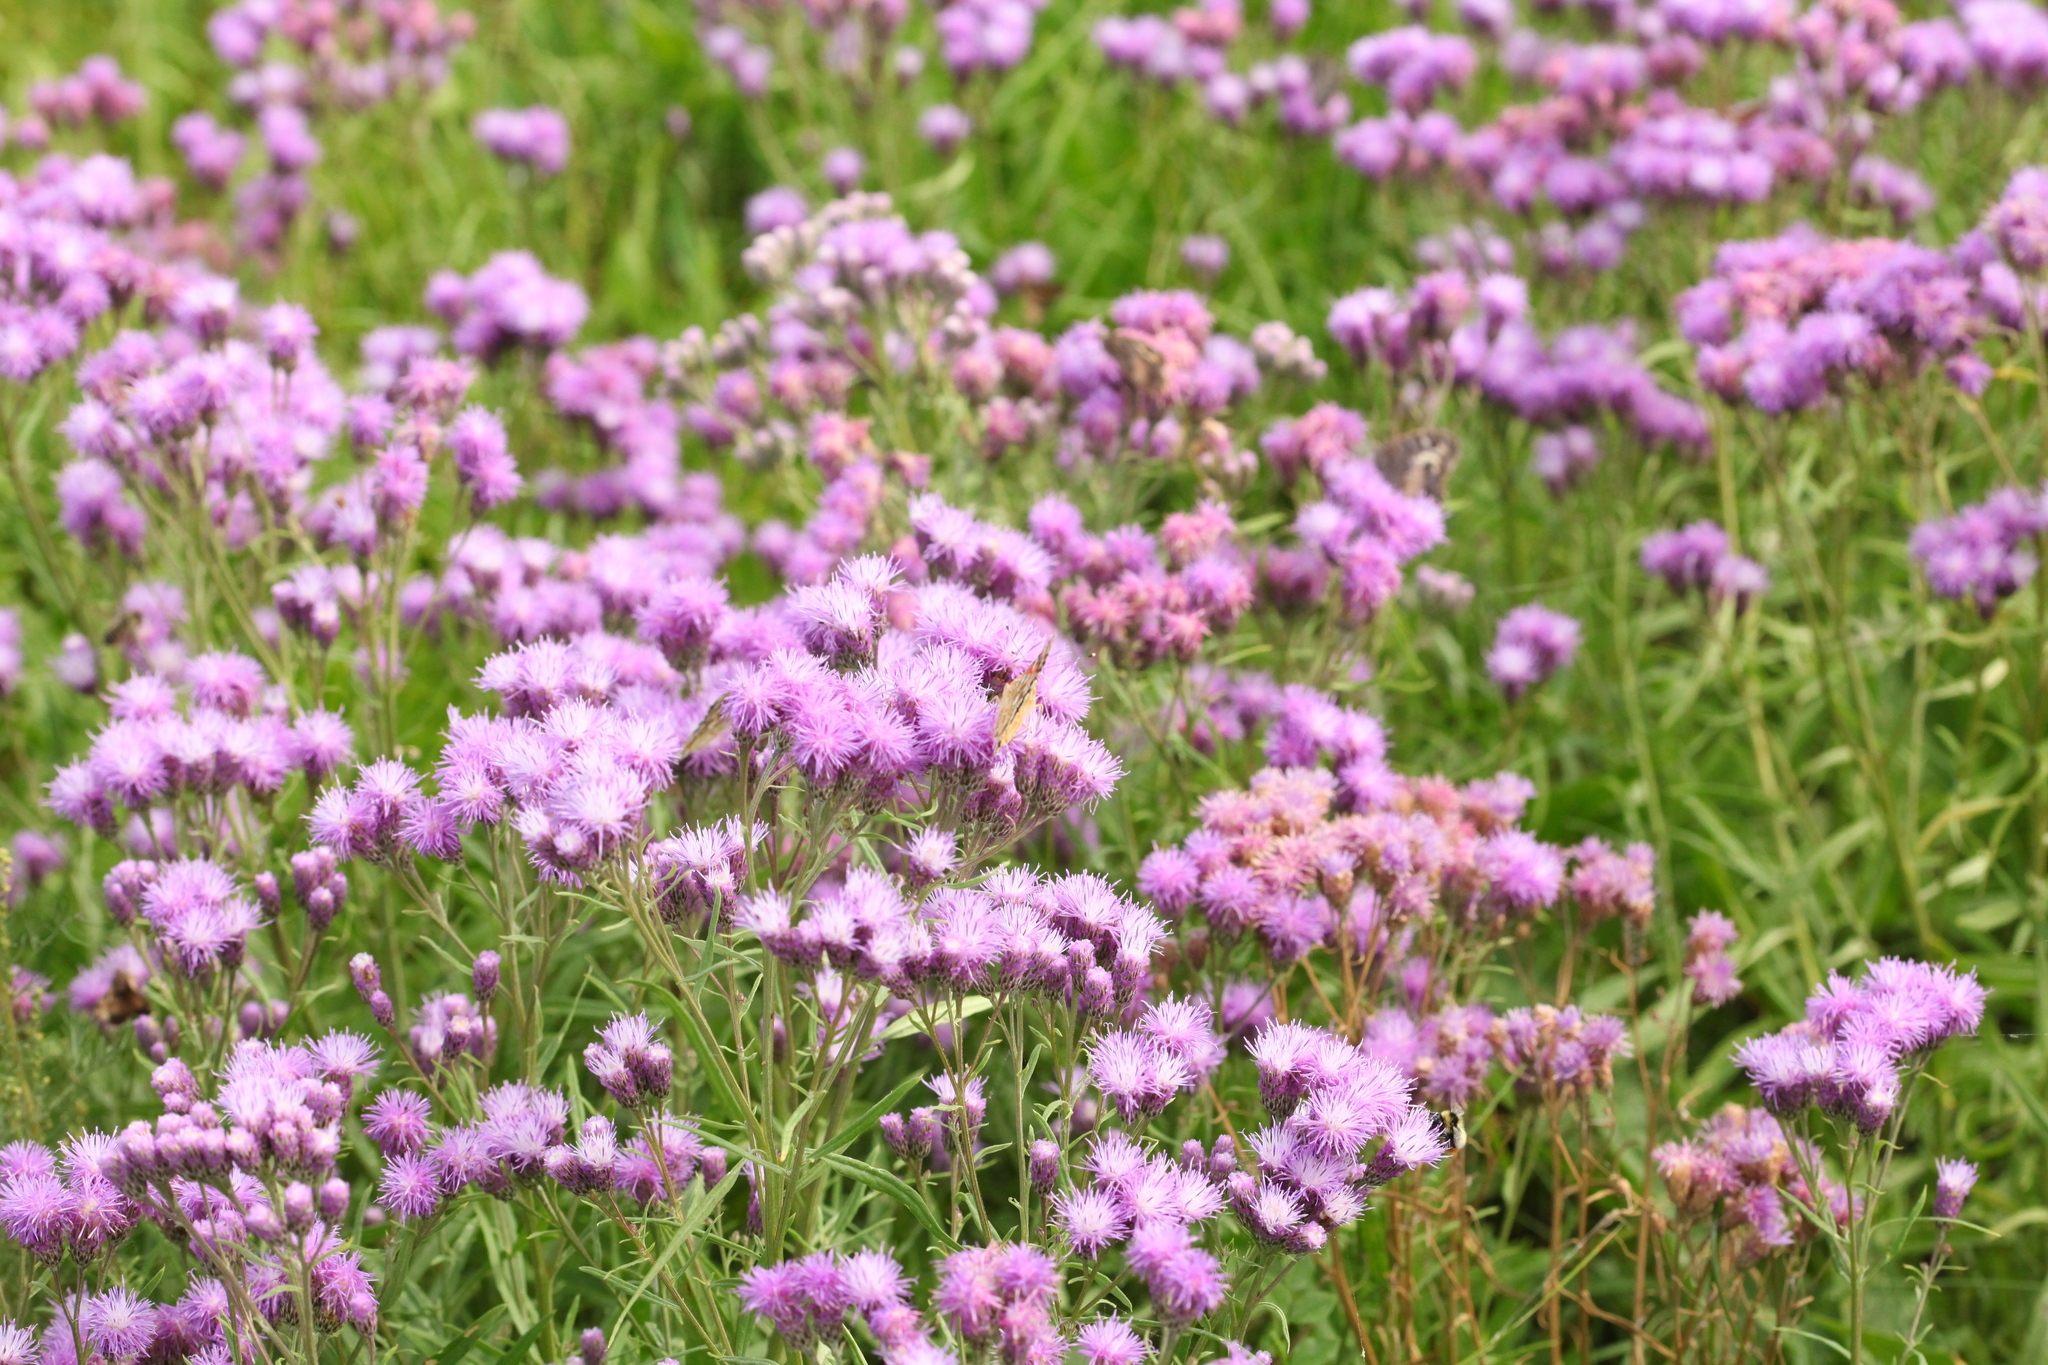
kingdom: Plantae
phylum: Tracheophyta
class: Magnoliopsida
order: Asterales
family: Asteraceae
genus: Saussurea
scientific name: Saussurea amara
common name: Alberta sawwort
